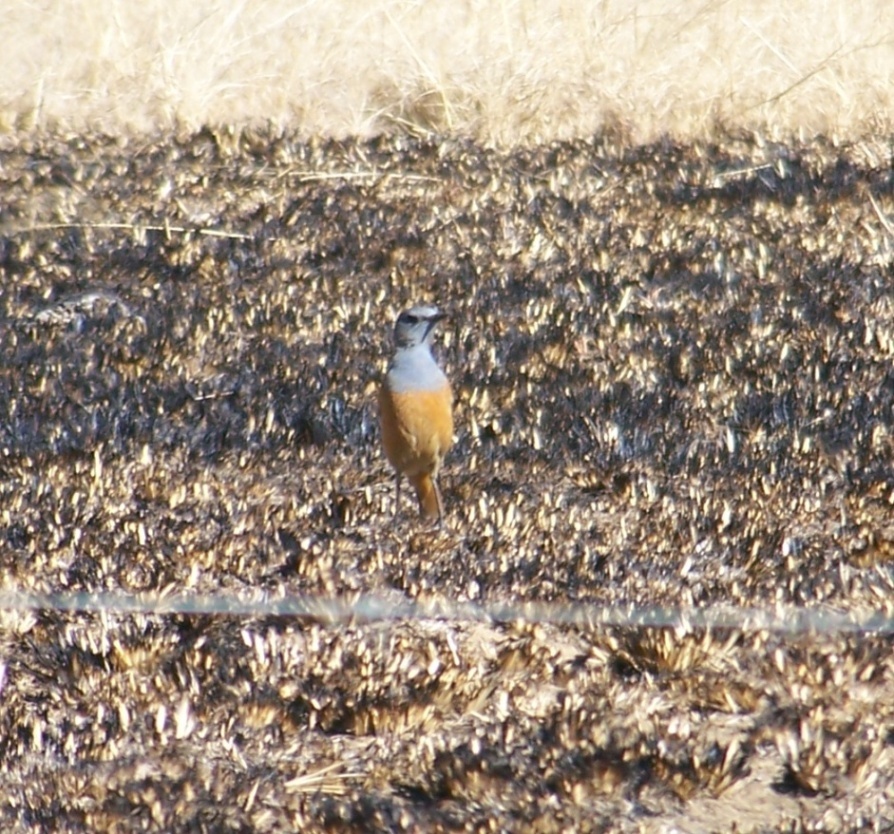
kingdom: Animalia
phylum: Chordata
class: Aves
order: Passeriformes
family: Muscicapidae
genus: Monticola
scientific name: Monticola explorator
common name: Sentinel rock thrush
